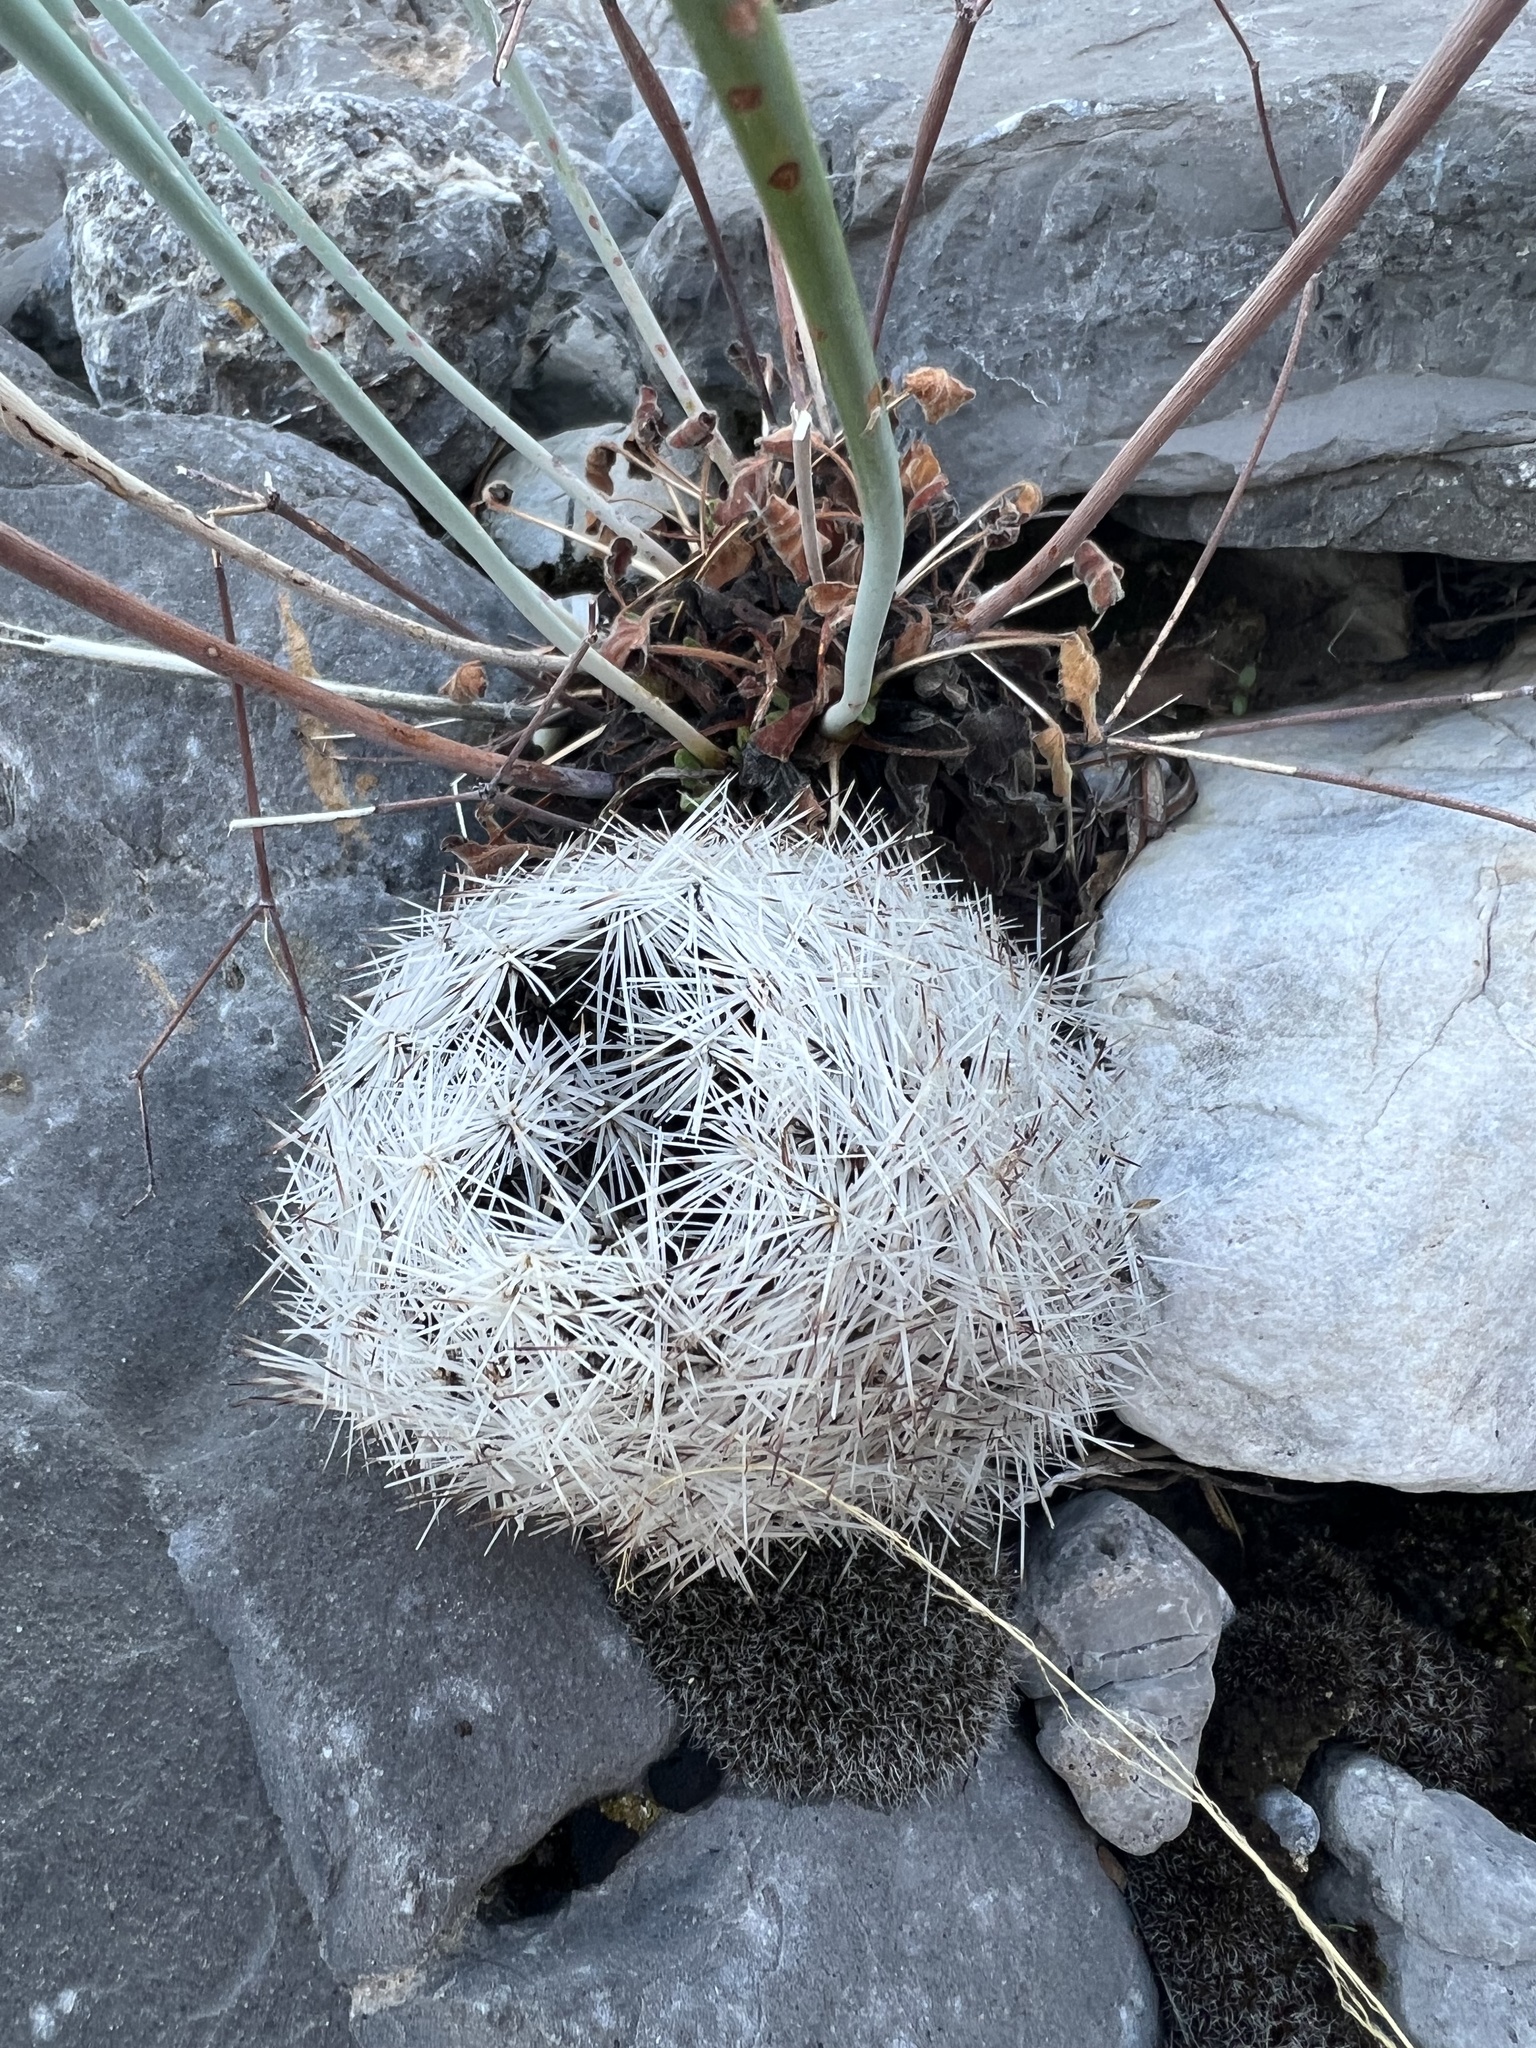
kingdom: Plantae
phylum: Tracheophyta
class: Magnoliopsida
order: Caryophyllales
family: Cactaceae
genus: Pelecyphora
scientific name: Pelecyphora dasyacantha
